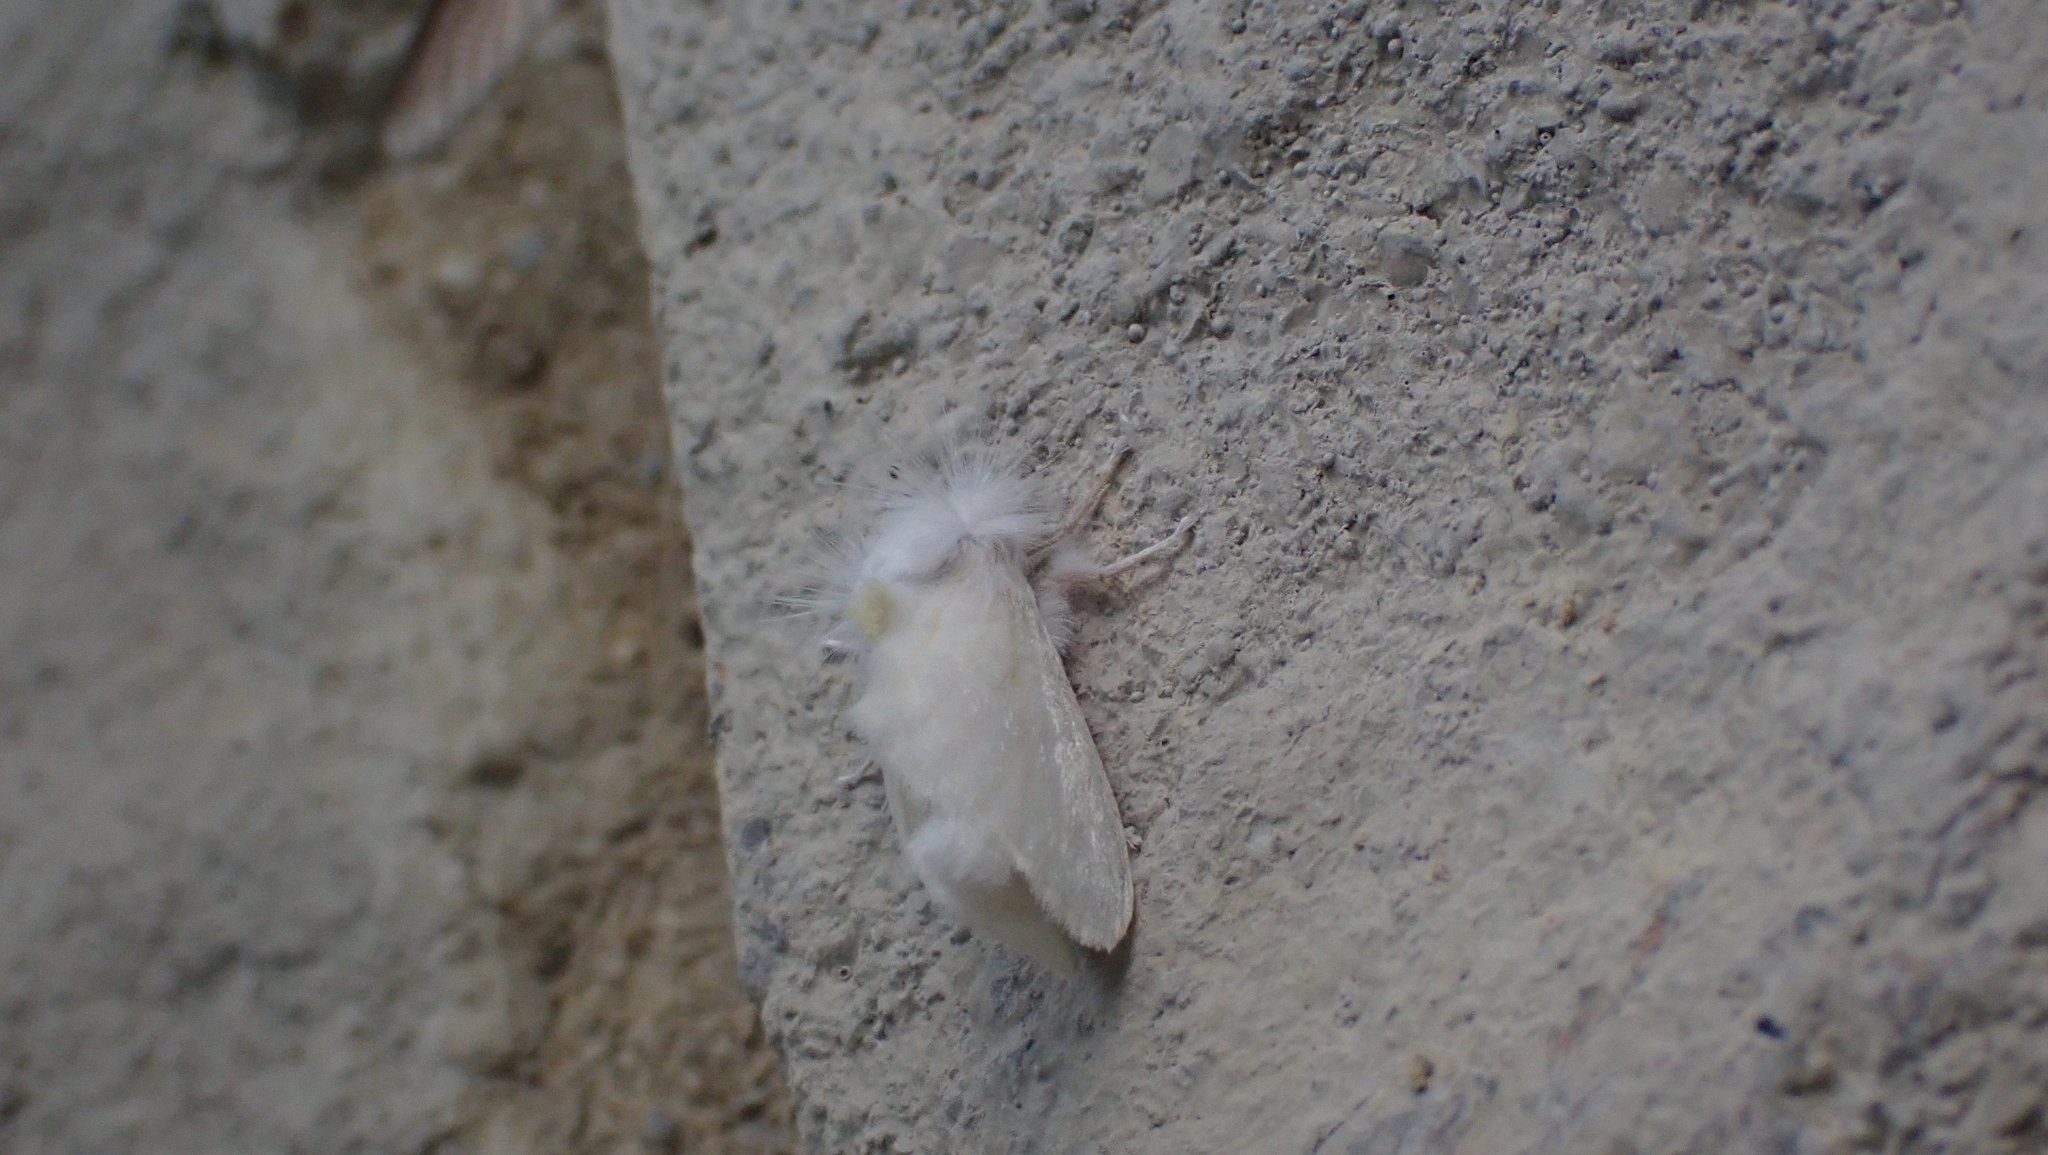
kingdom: Animalia
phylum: Arthropoda
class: Insecta
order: Lepidoptera
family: Megalopygidae
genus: Norape
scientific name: Norape cretata
